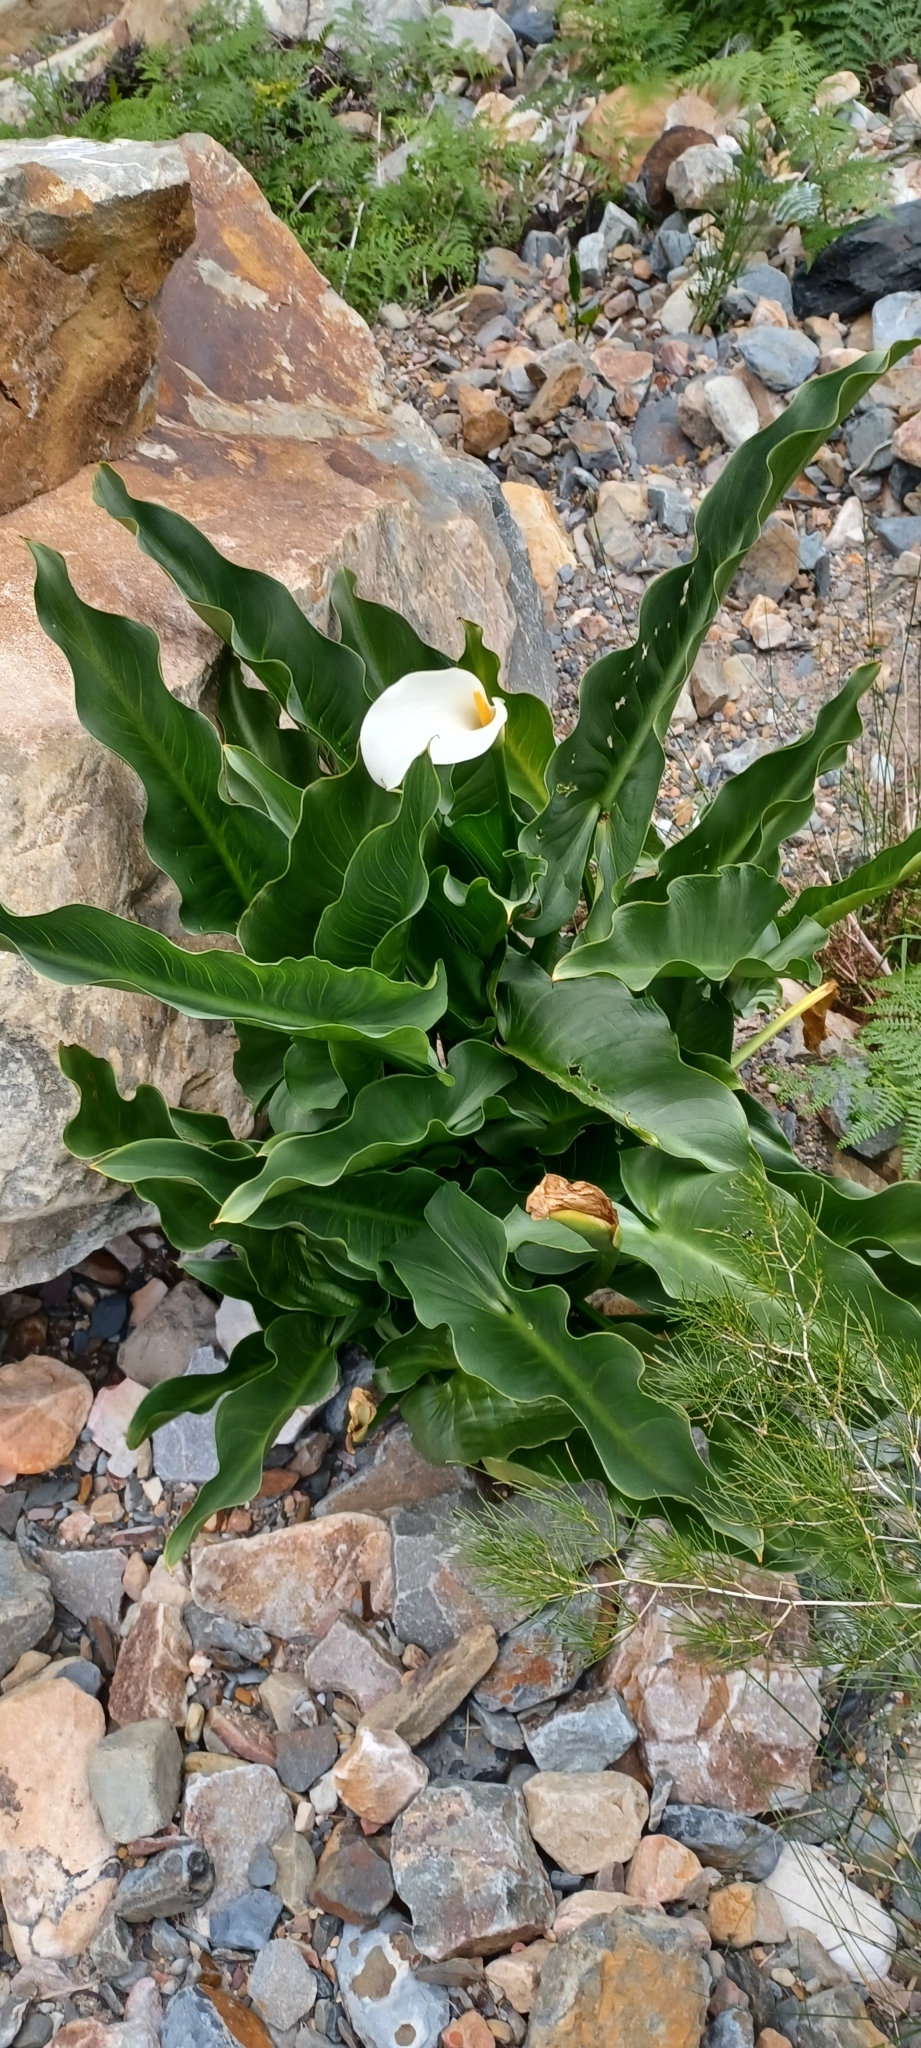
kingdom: Plantae
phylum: Tracheophyta
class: Liliopsida
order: Alismatales
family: Araceae
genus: Zantedeschia
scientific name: Zantedeschia aethiopica
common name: Altar-lily
